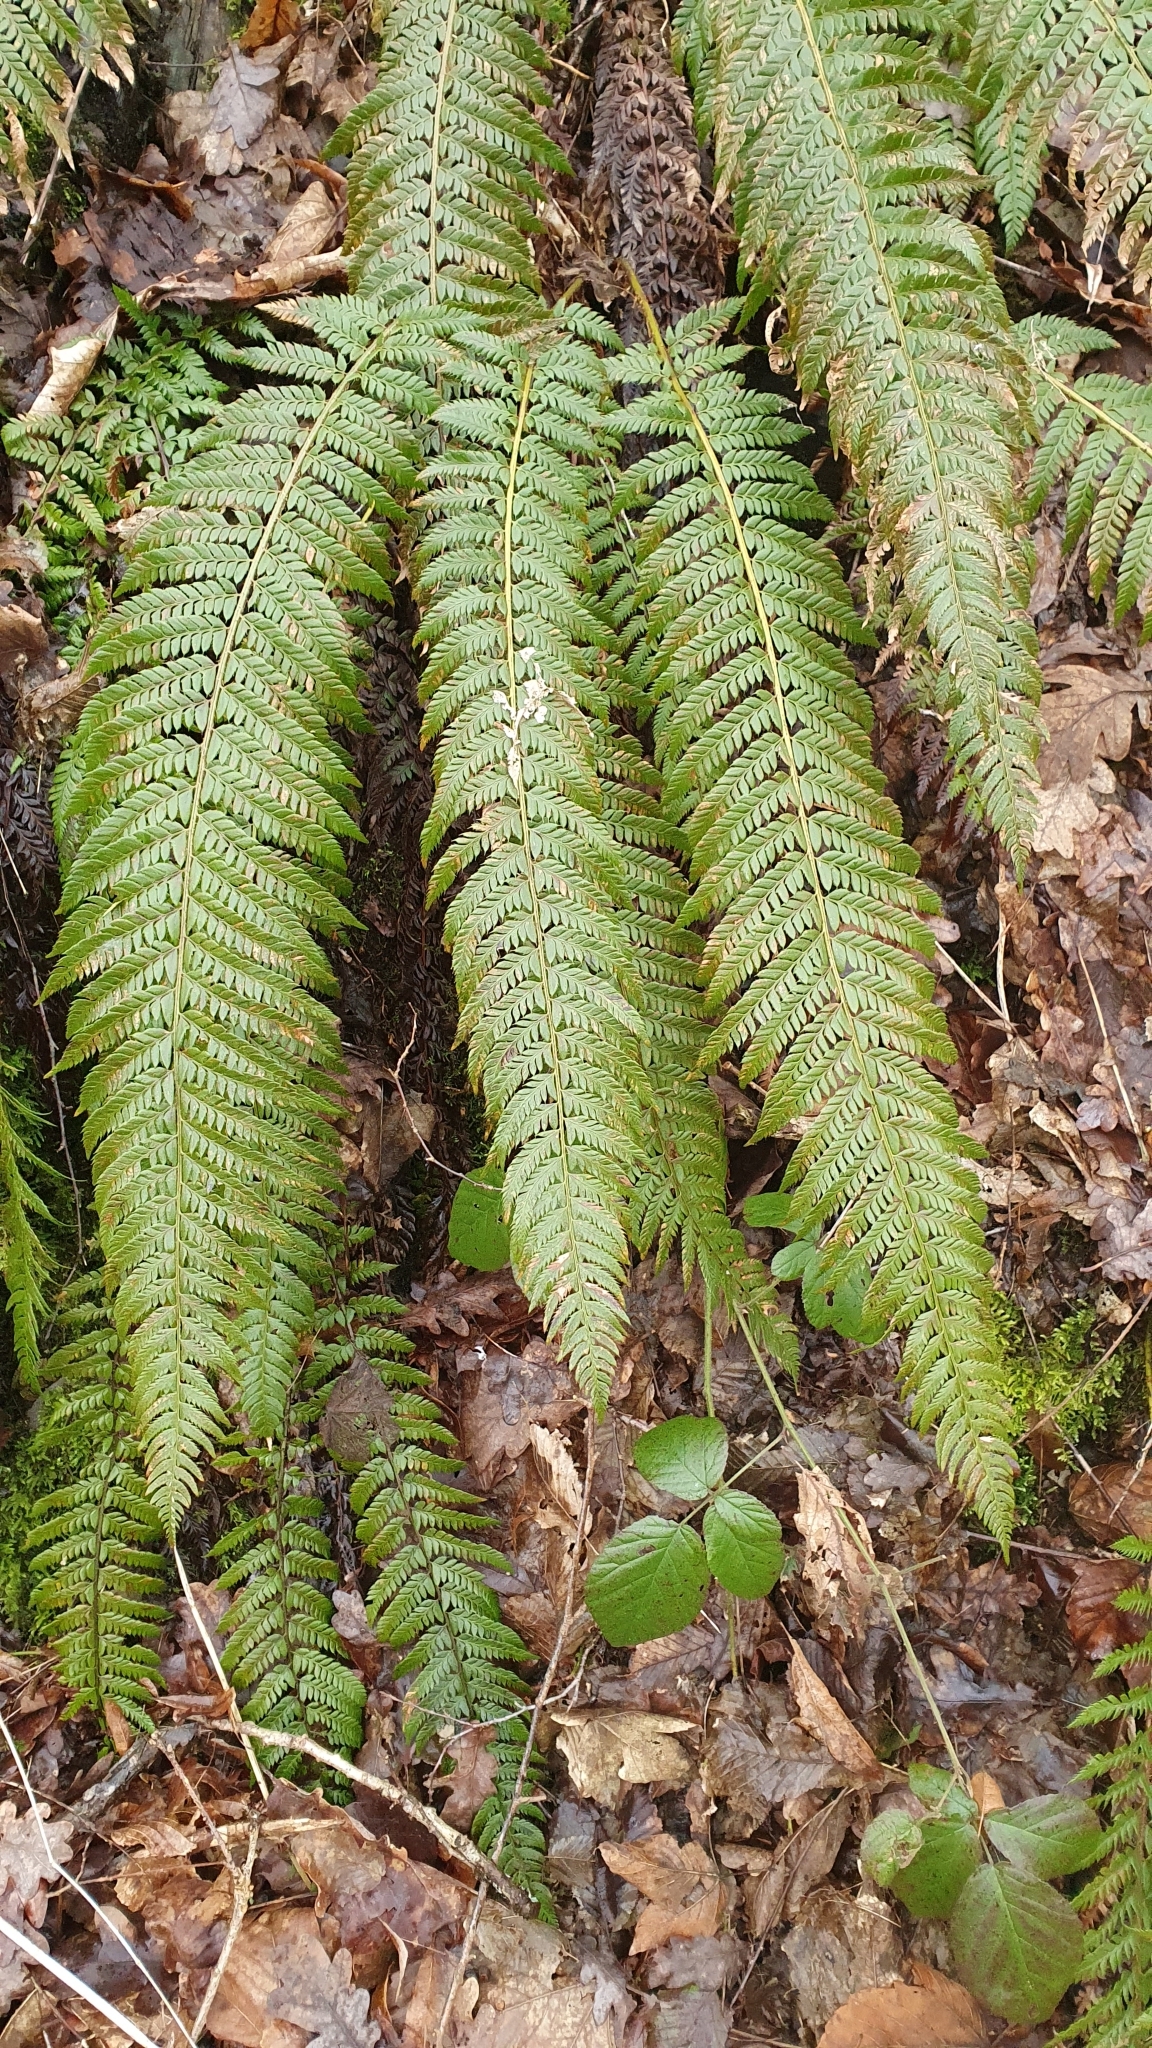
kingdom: Plantae
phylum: Tracheophyta
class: Polypodiopsida
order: Polypodiales
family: Dryopteridaceae
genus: Polystichum
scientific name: Polystichum aculeatum
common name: Hard shield-fern
